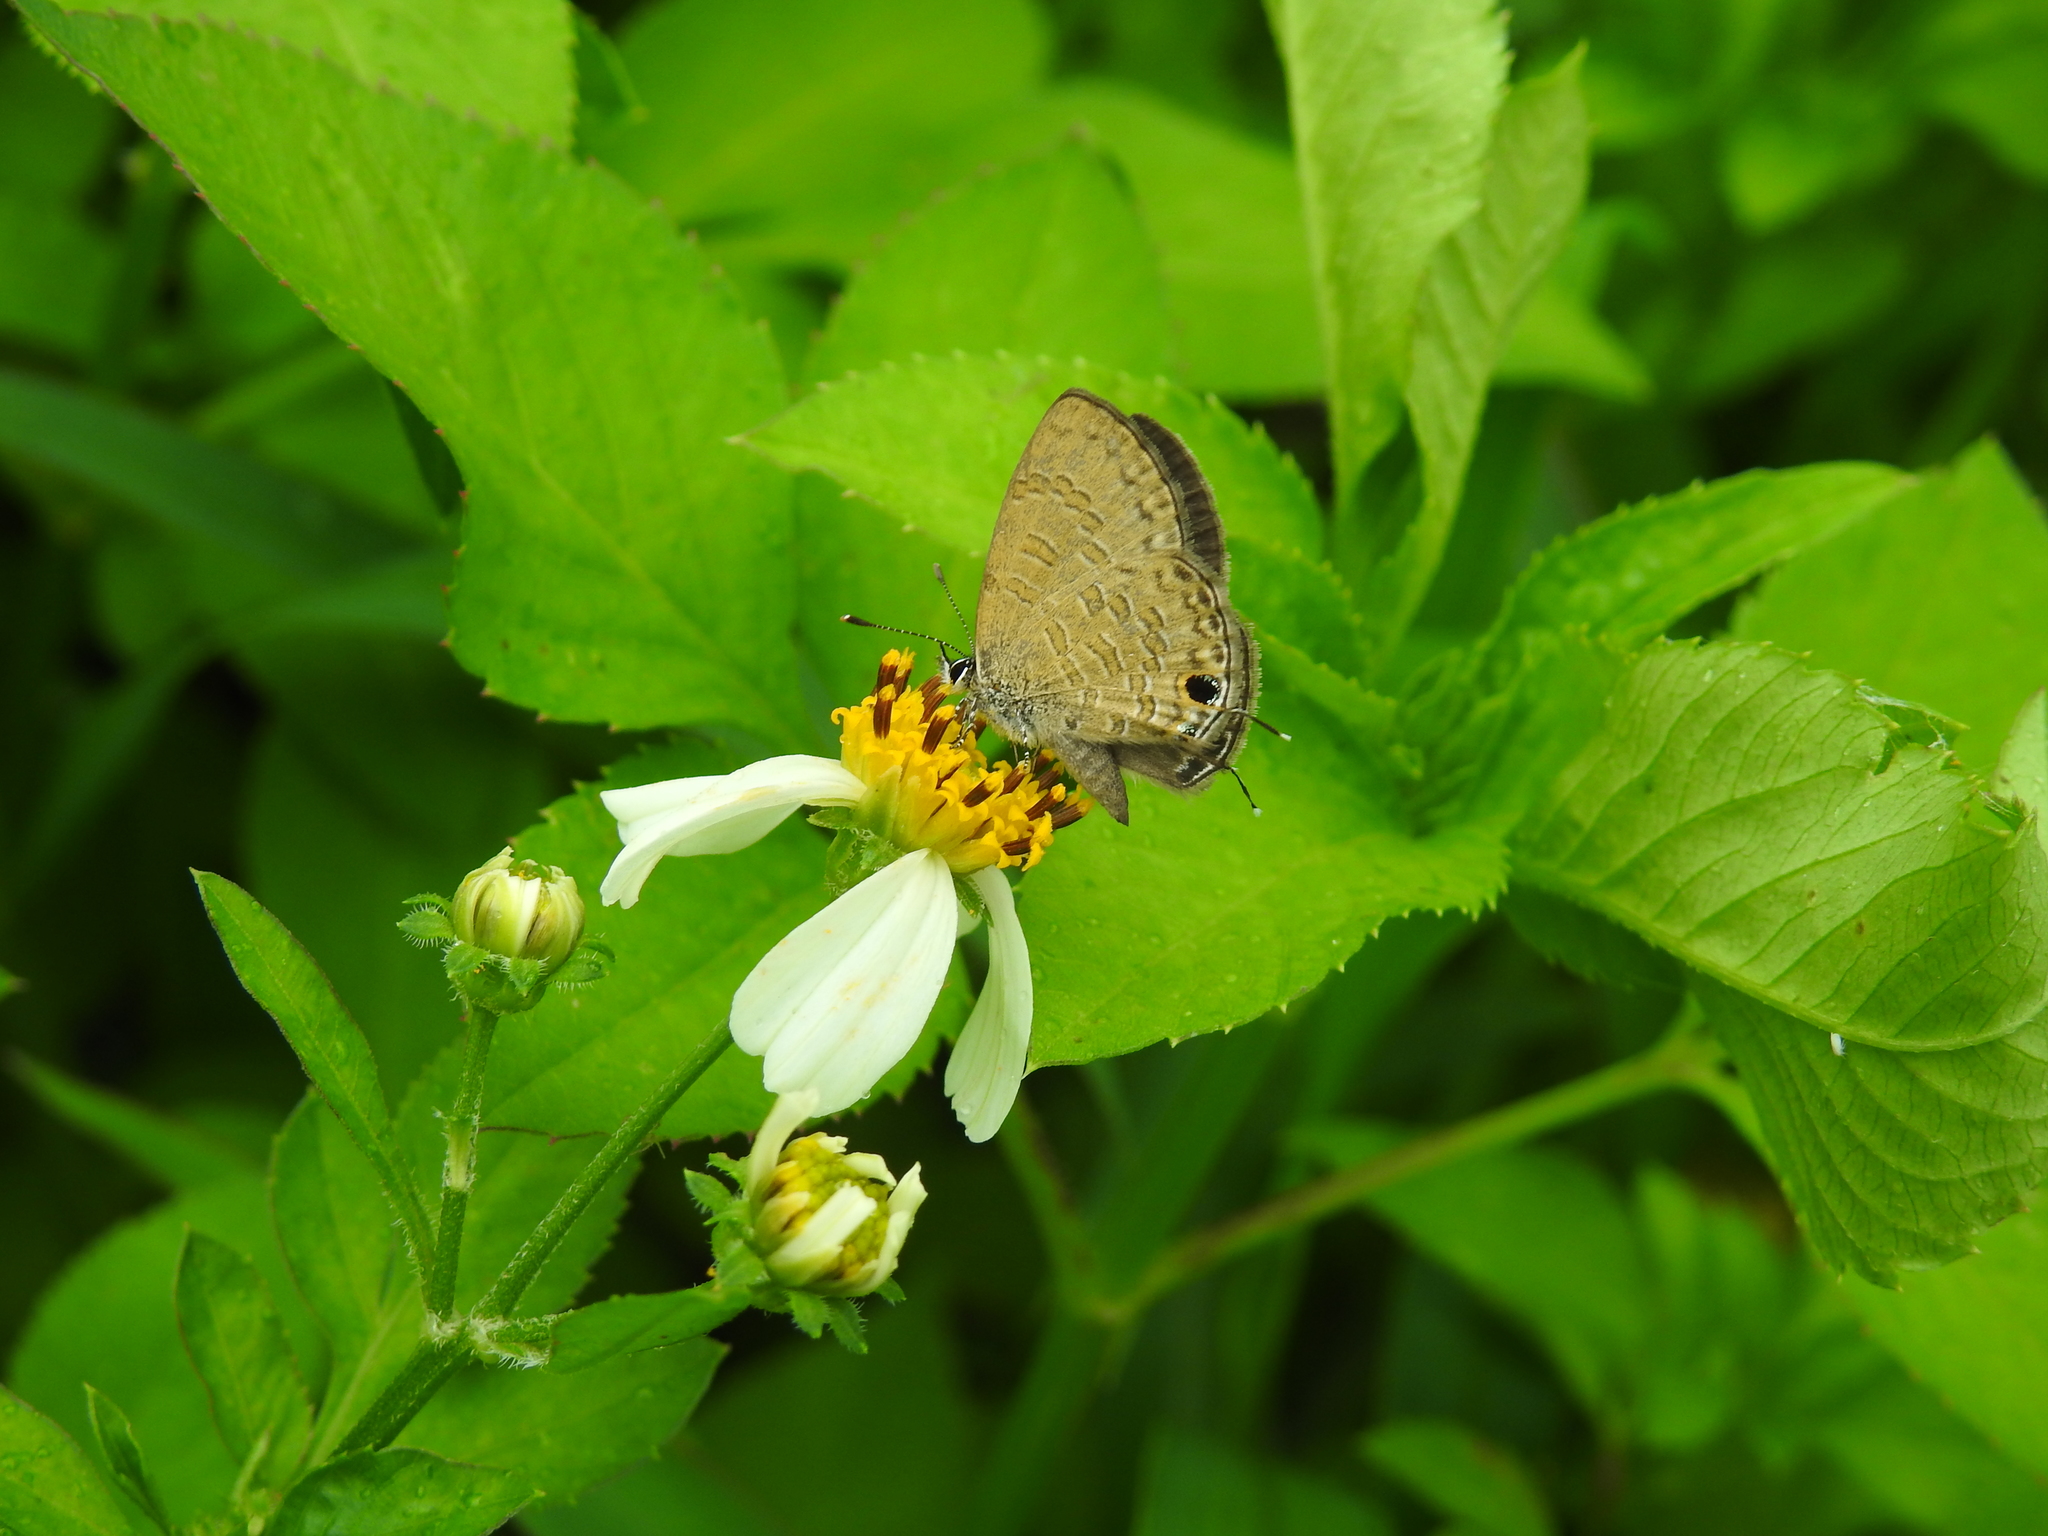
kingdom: Animalia
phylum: Arthropoda
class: Insecta
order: Lepidoptera
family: Lycaenidae
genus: Prosotas
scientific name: Prosotas nora
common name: Common line blue
